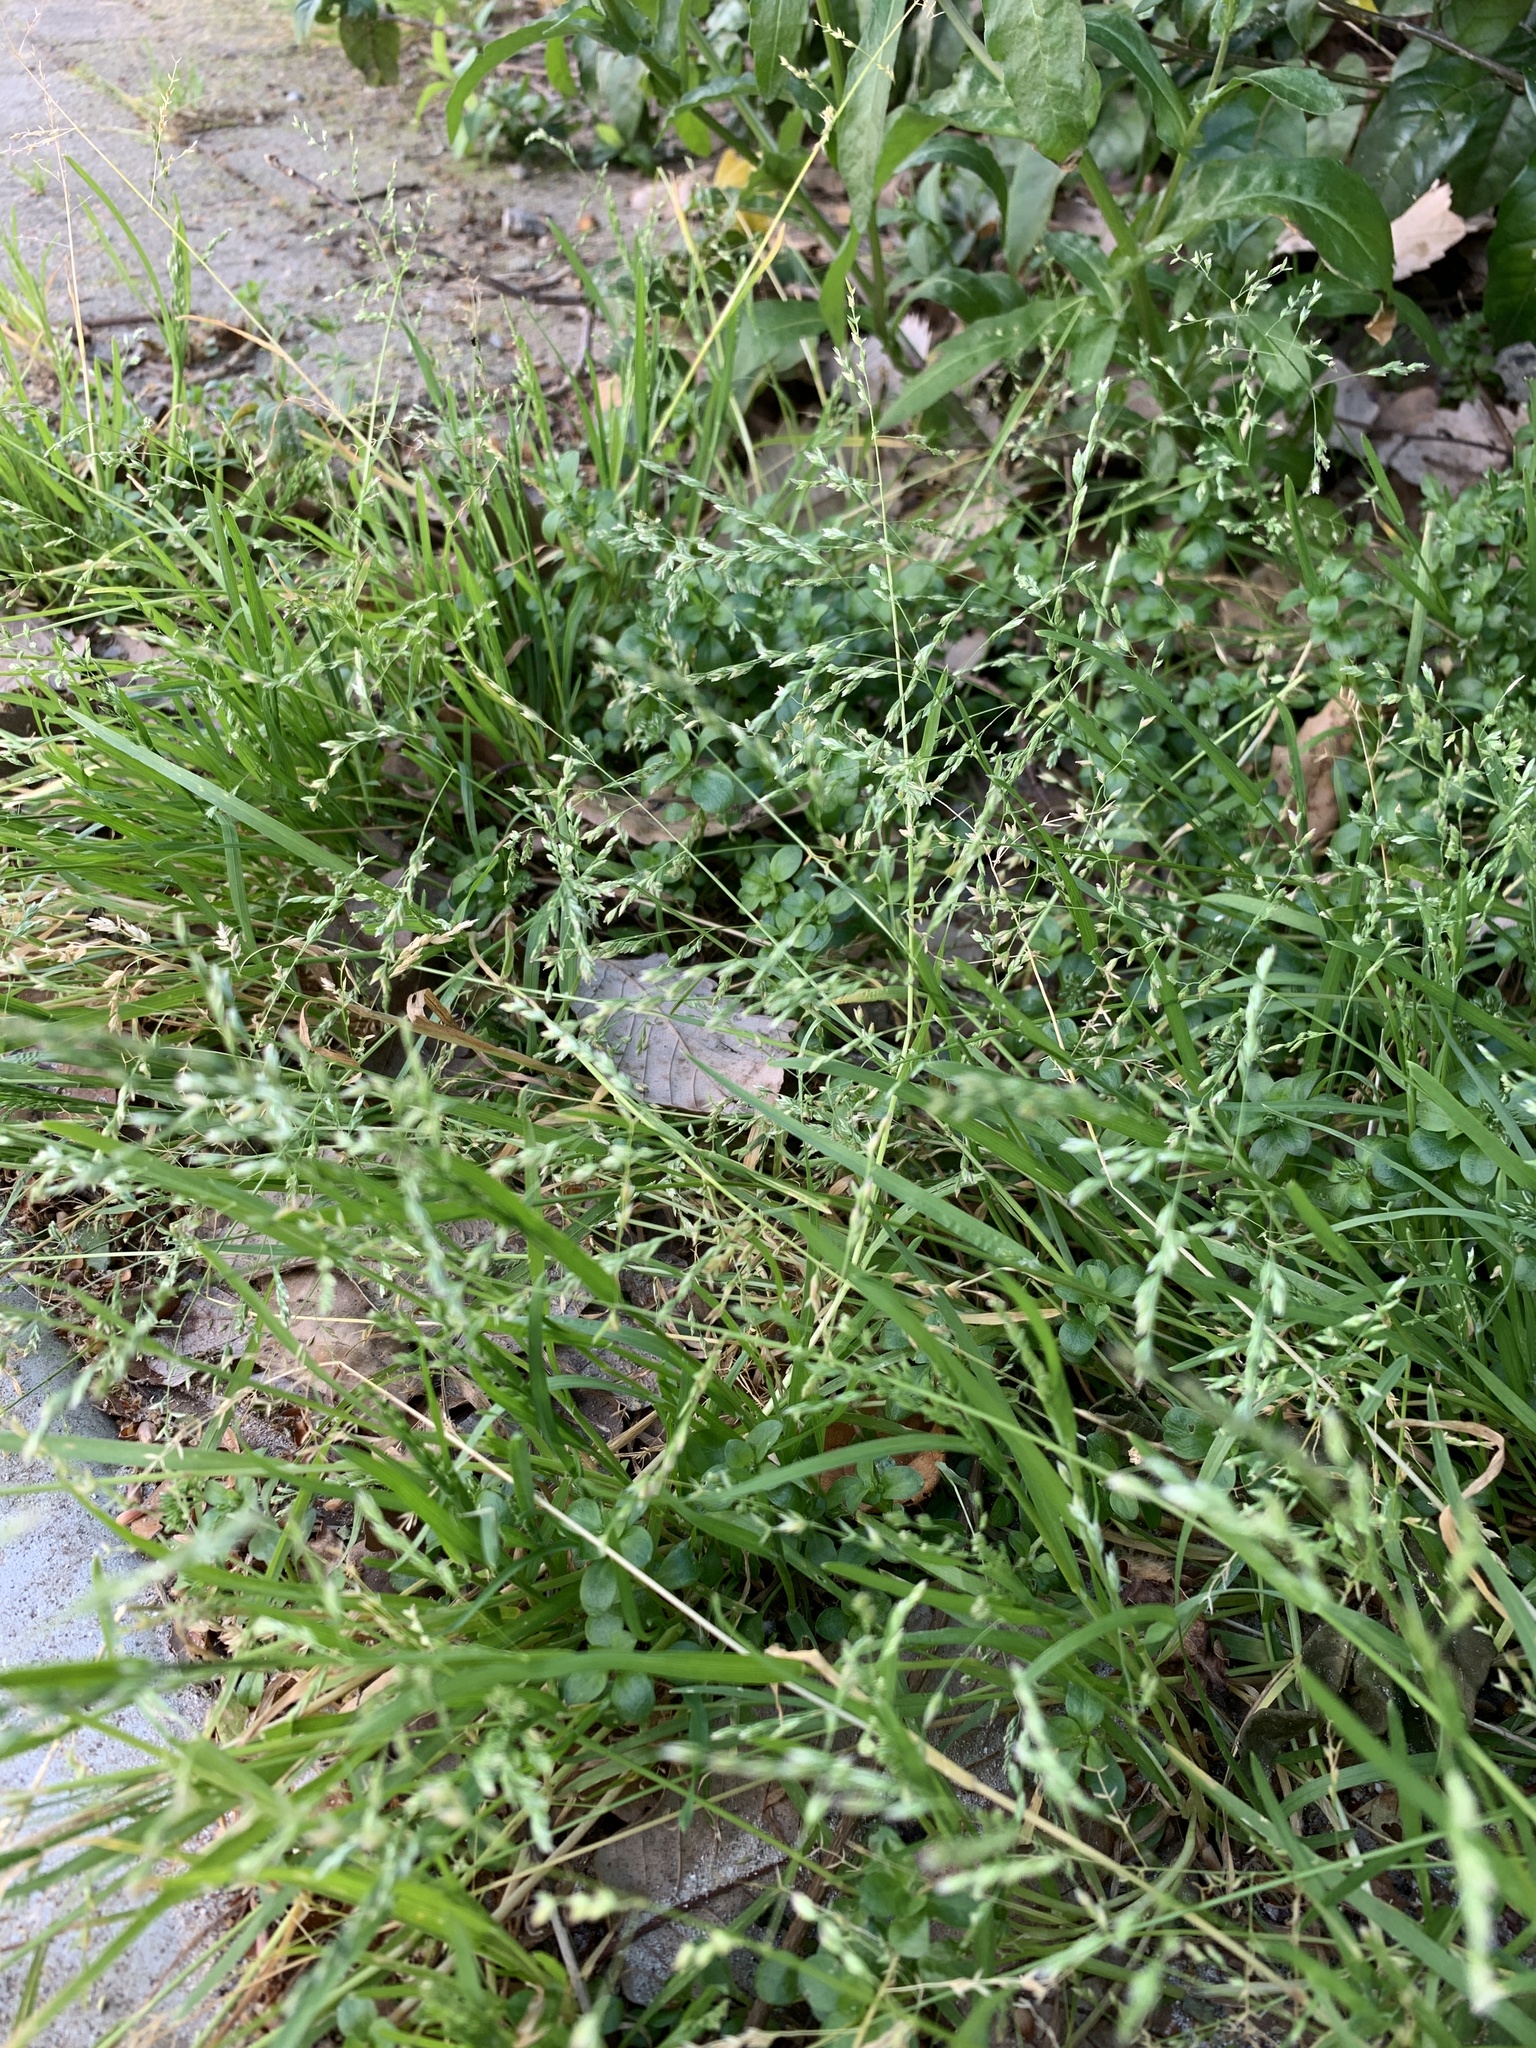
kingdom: Plantae
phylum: Tracheophyta
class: Liliopsida
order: Poales
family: Poaceae
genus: Poa
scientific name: Poa annua
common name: Annual bluegrass
